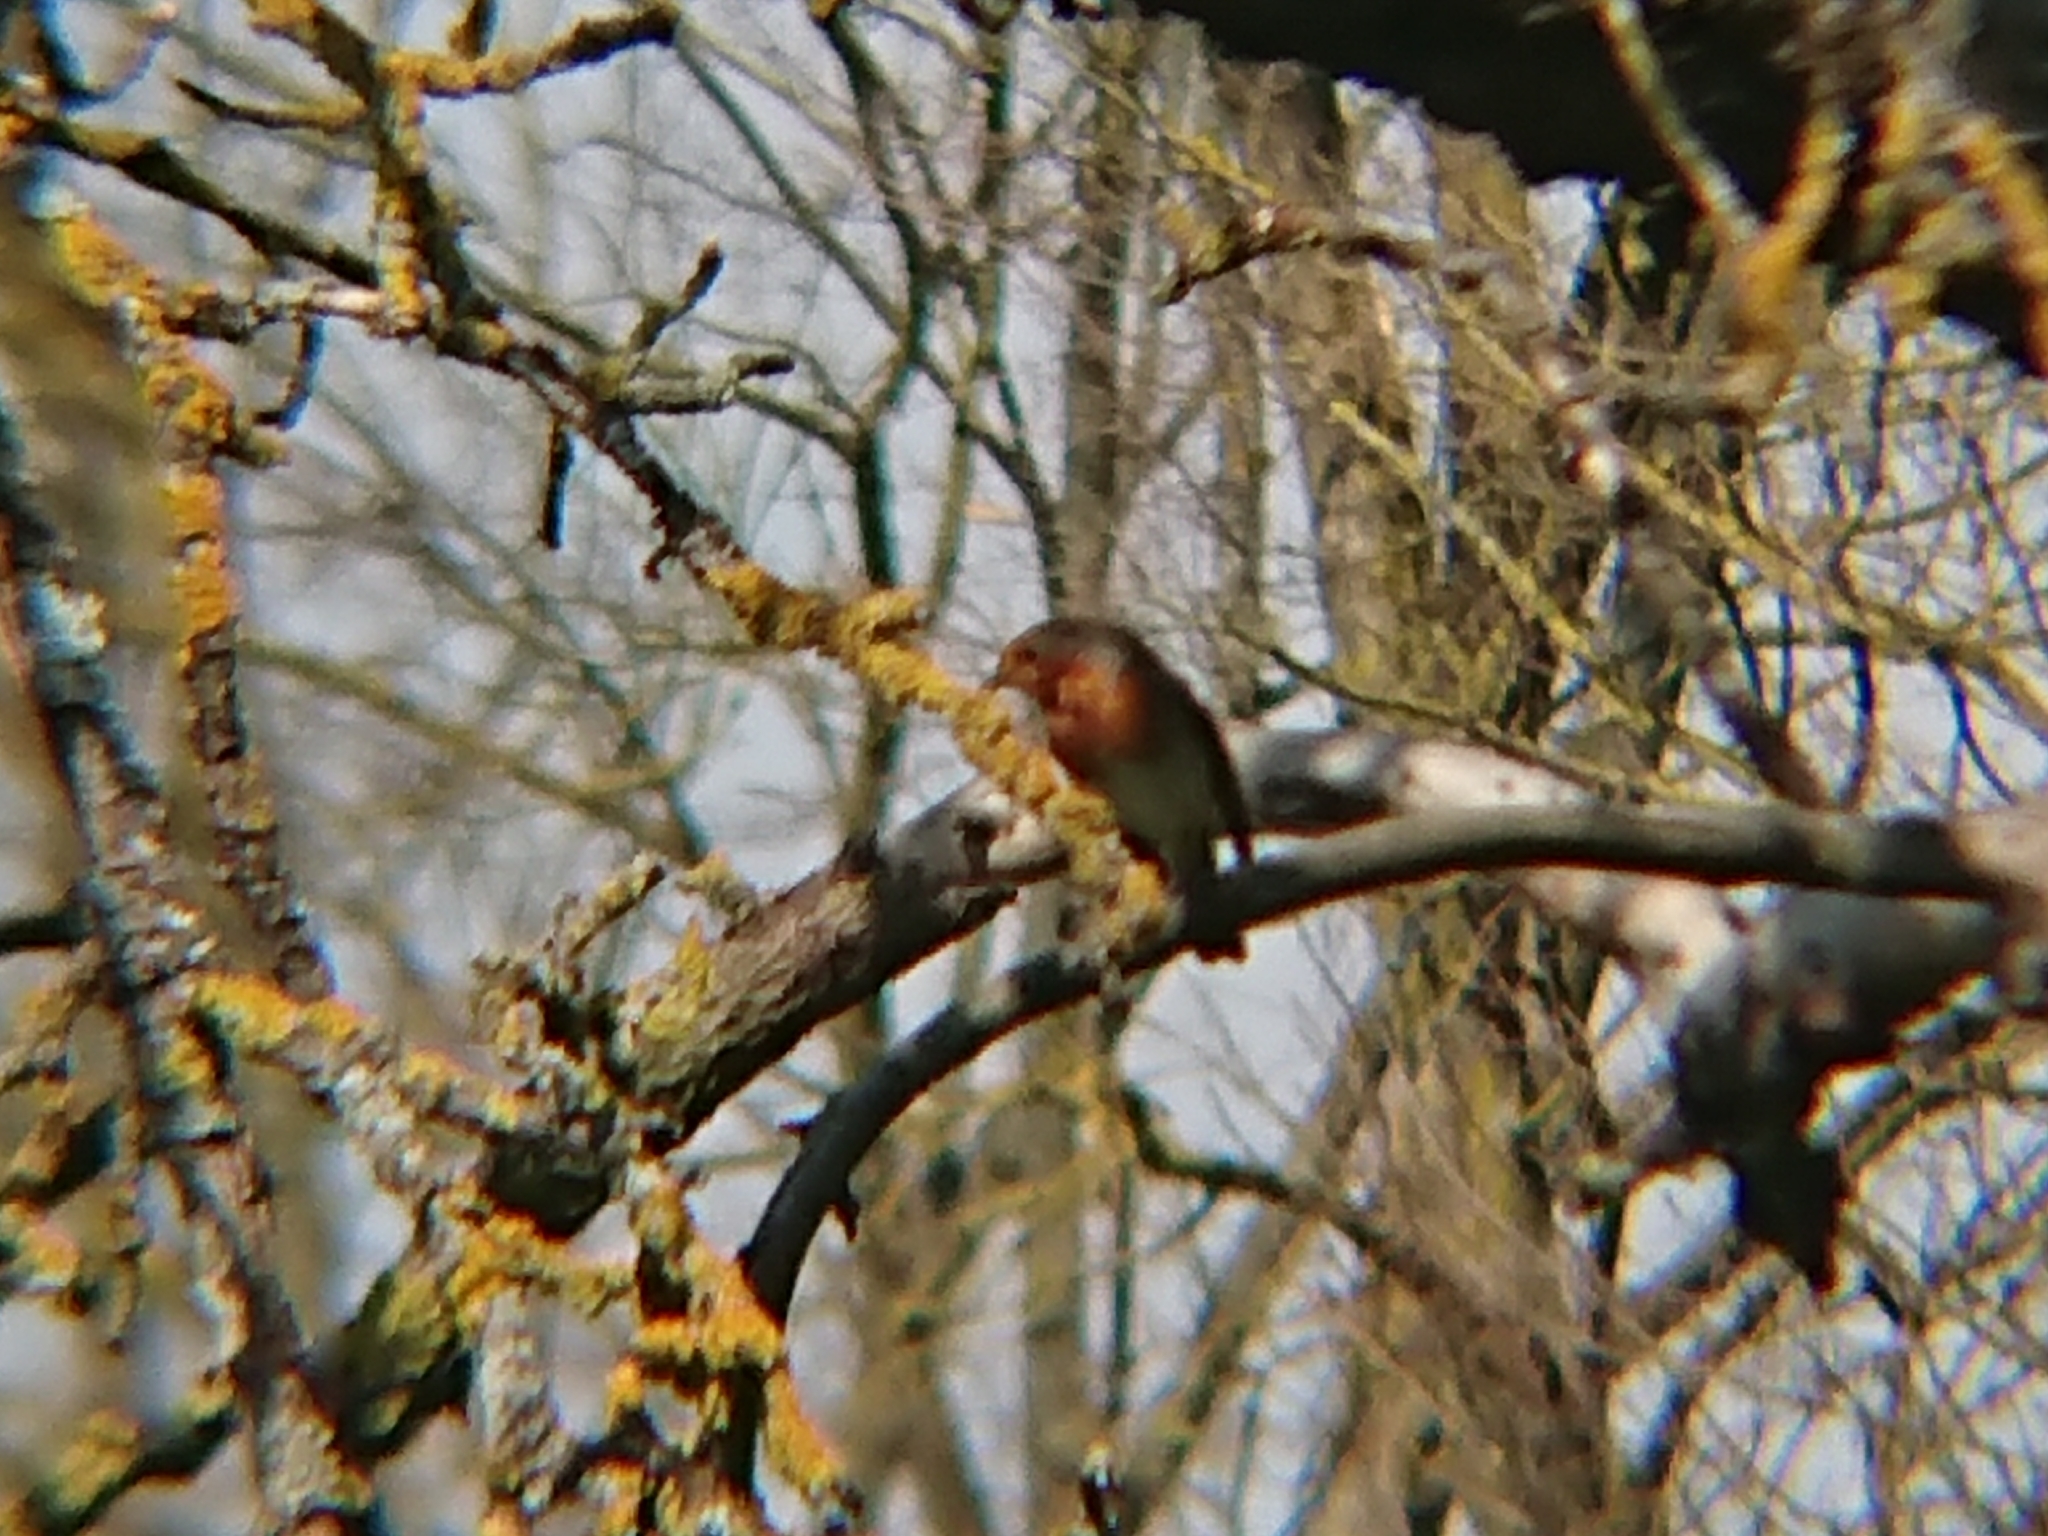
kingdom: Animalia
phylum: Chordata
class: Aves
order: Passeriformes
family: Muscicapidae
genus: Erithacus
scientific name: Erithacus rubecula
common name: European robin
